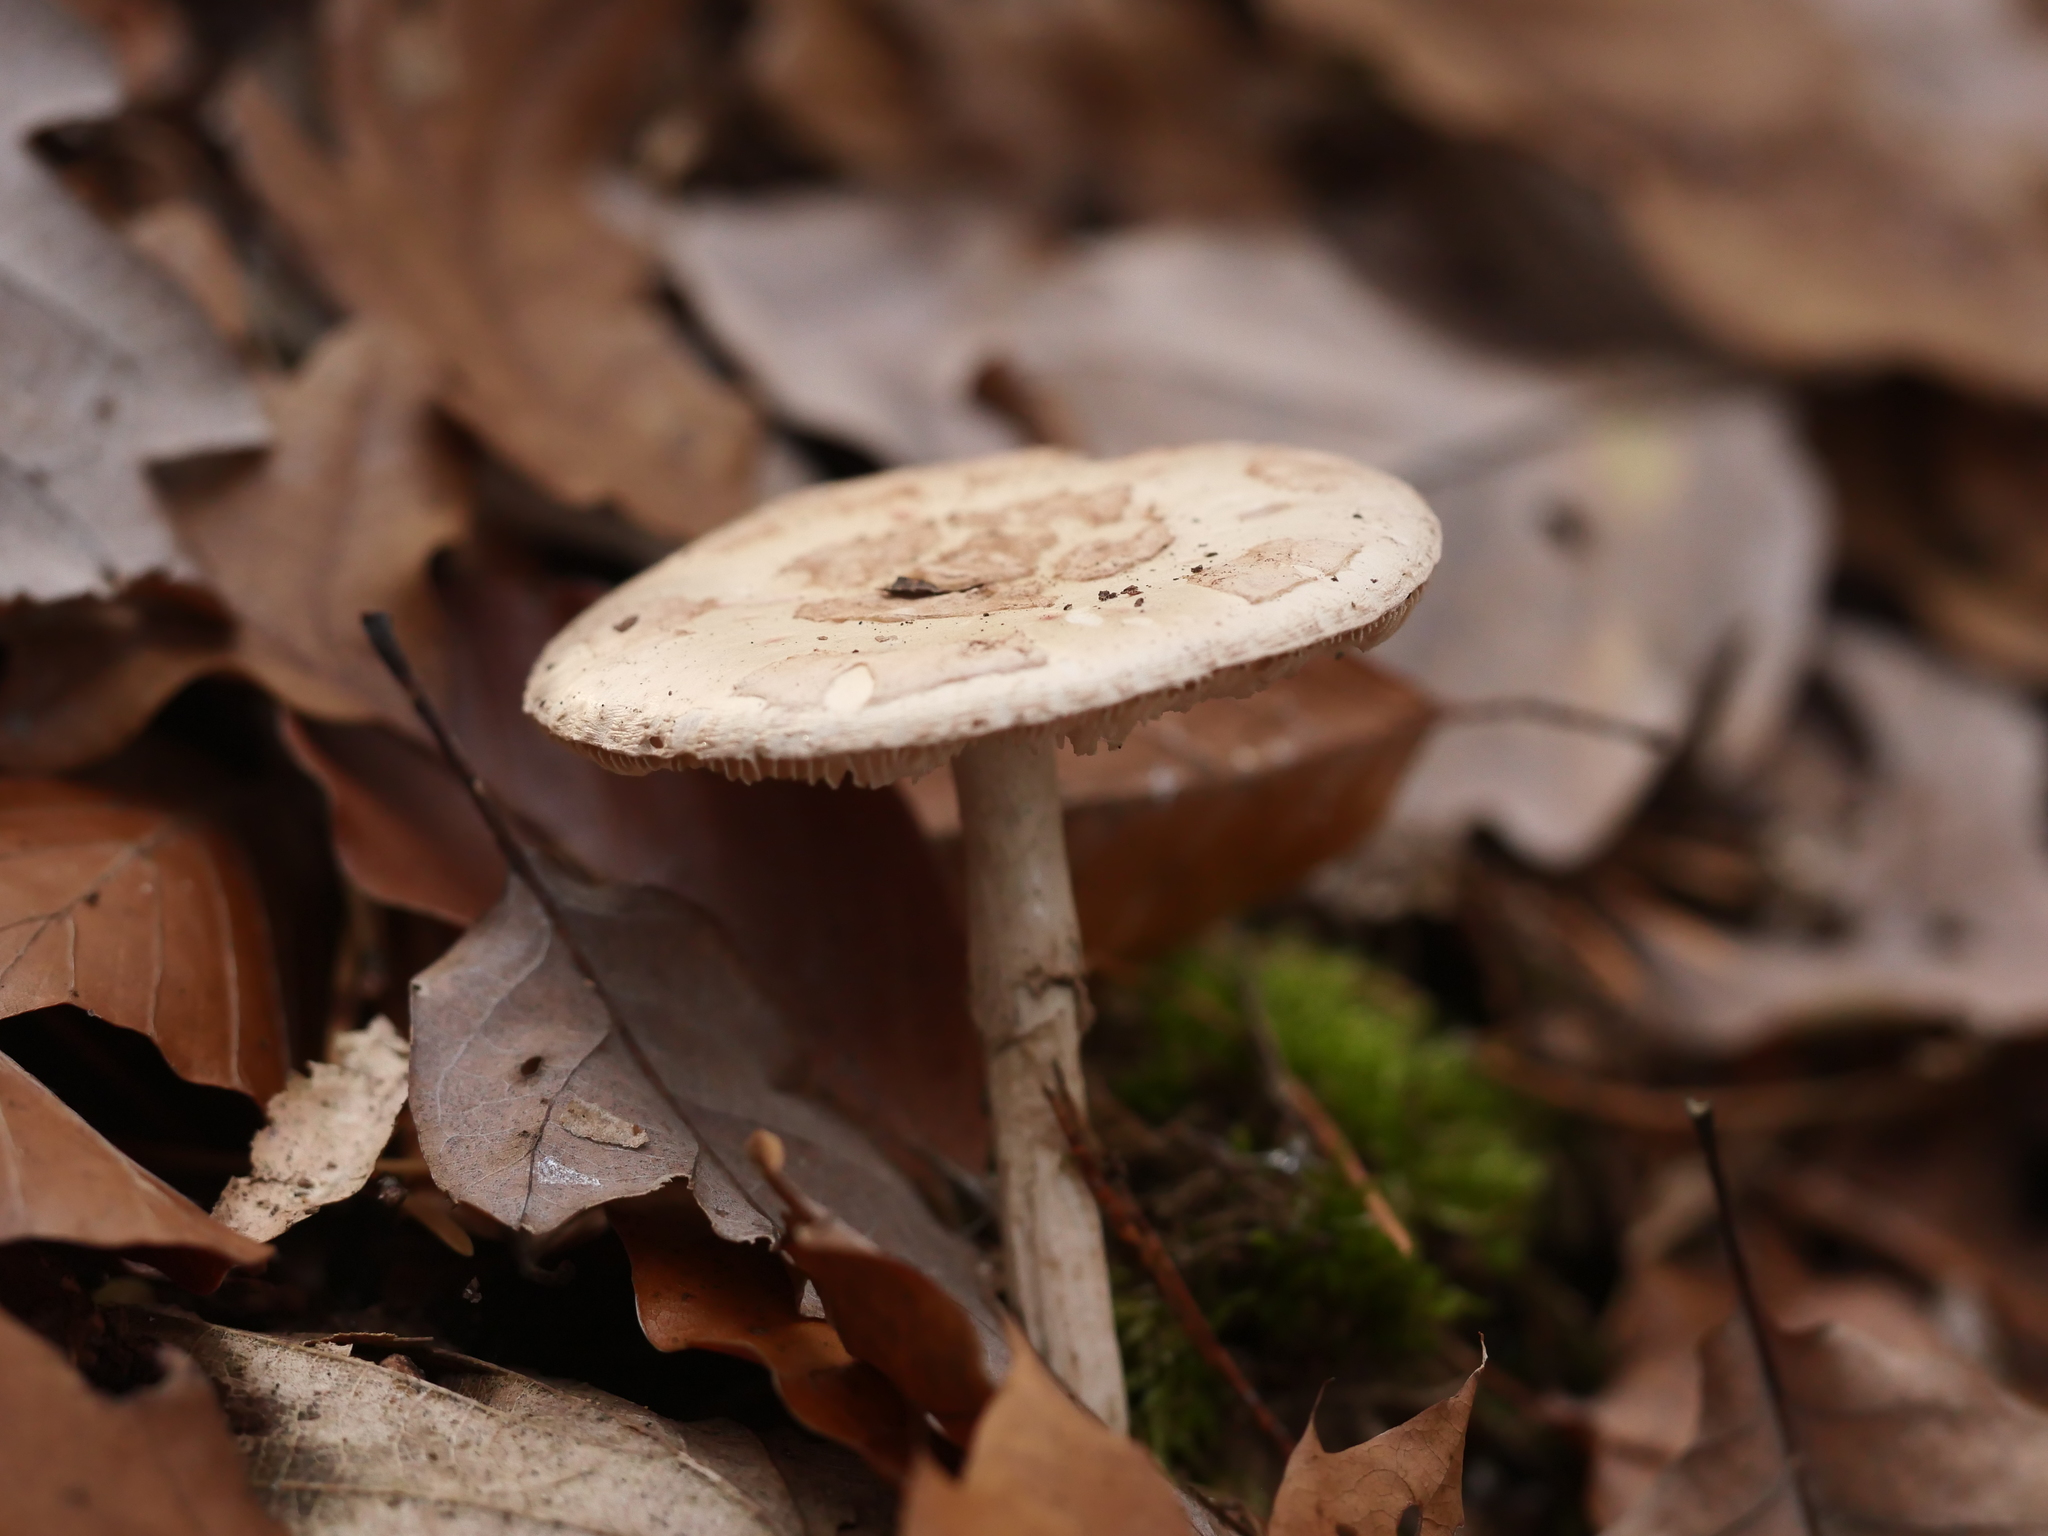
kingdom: Fungi
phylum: Basidiomycota
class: Agaricomycetes
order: Agaricales
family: Amanitaceae
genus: Amanita
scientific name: Amanita citrina
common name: False death-cap
